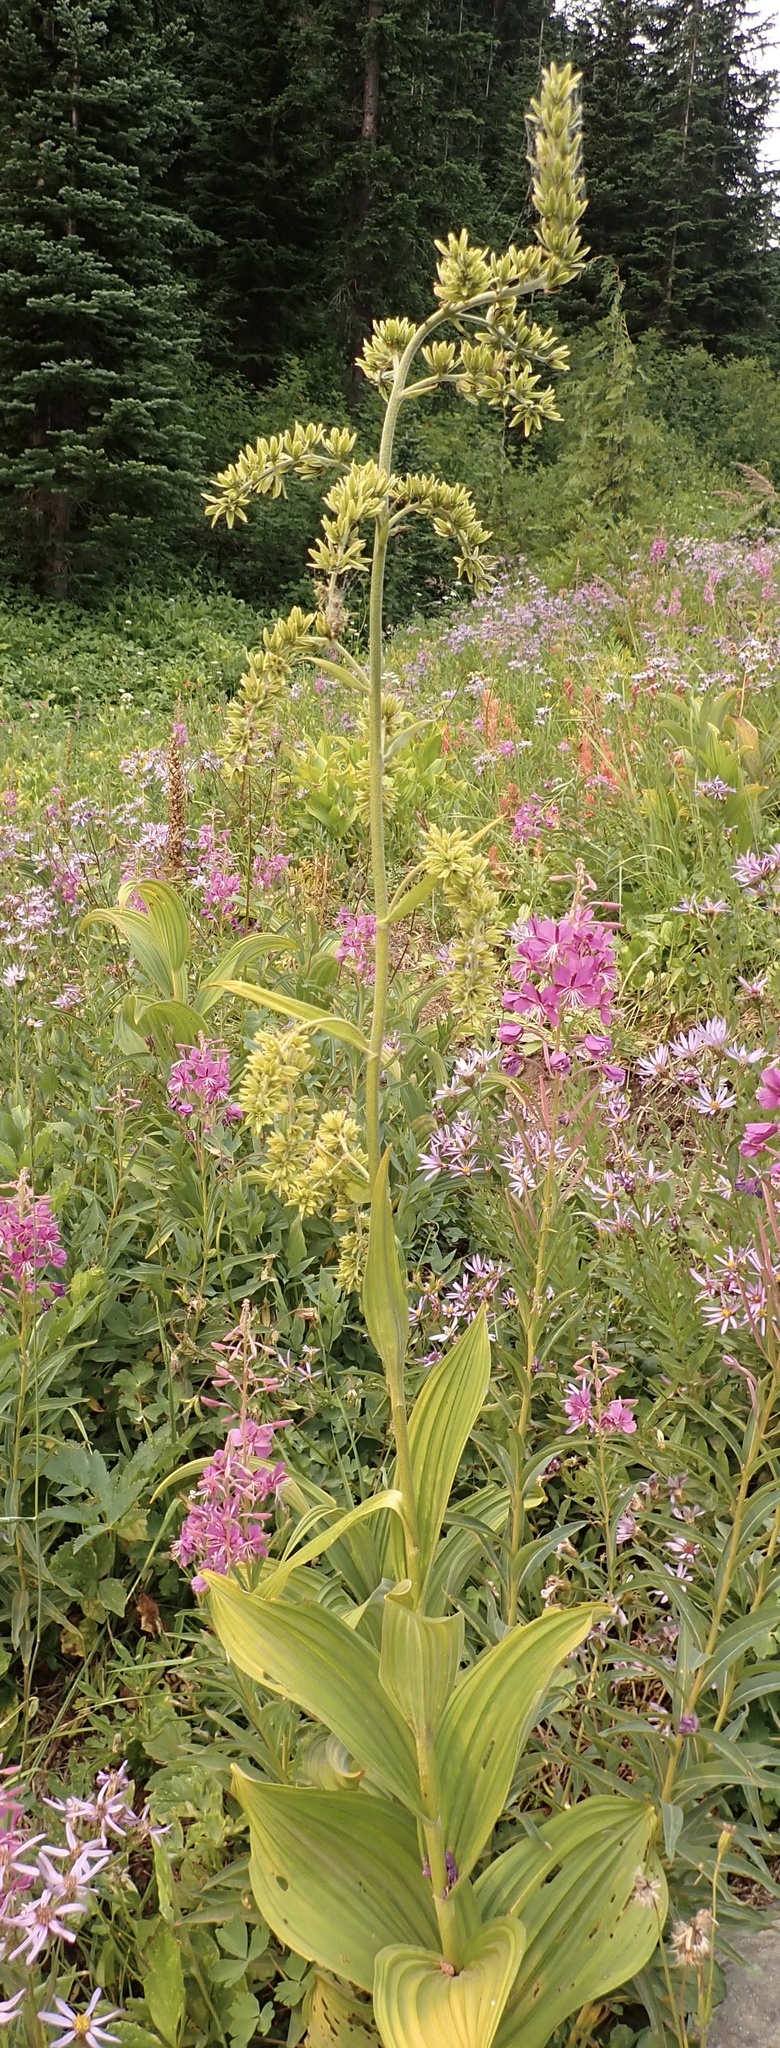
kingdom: Plantae
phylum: Tracheophyta
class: Liliopsida
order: Liliales
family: Melanthiaceae
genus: Veratrum
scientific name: Veratrum viride
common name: American false hellebore
